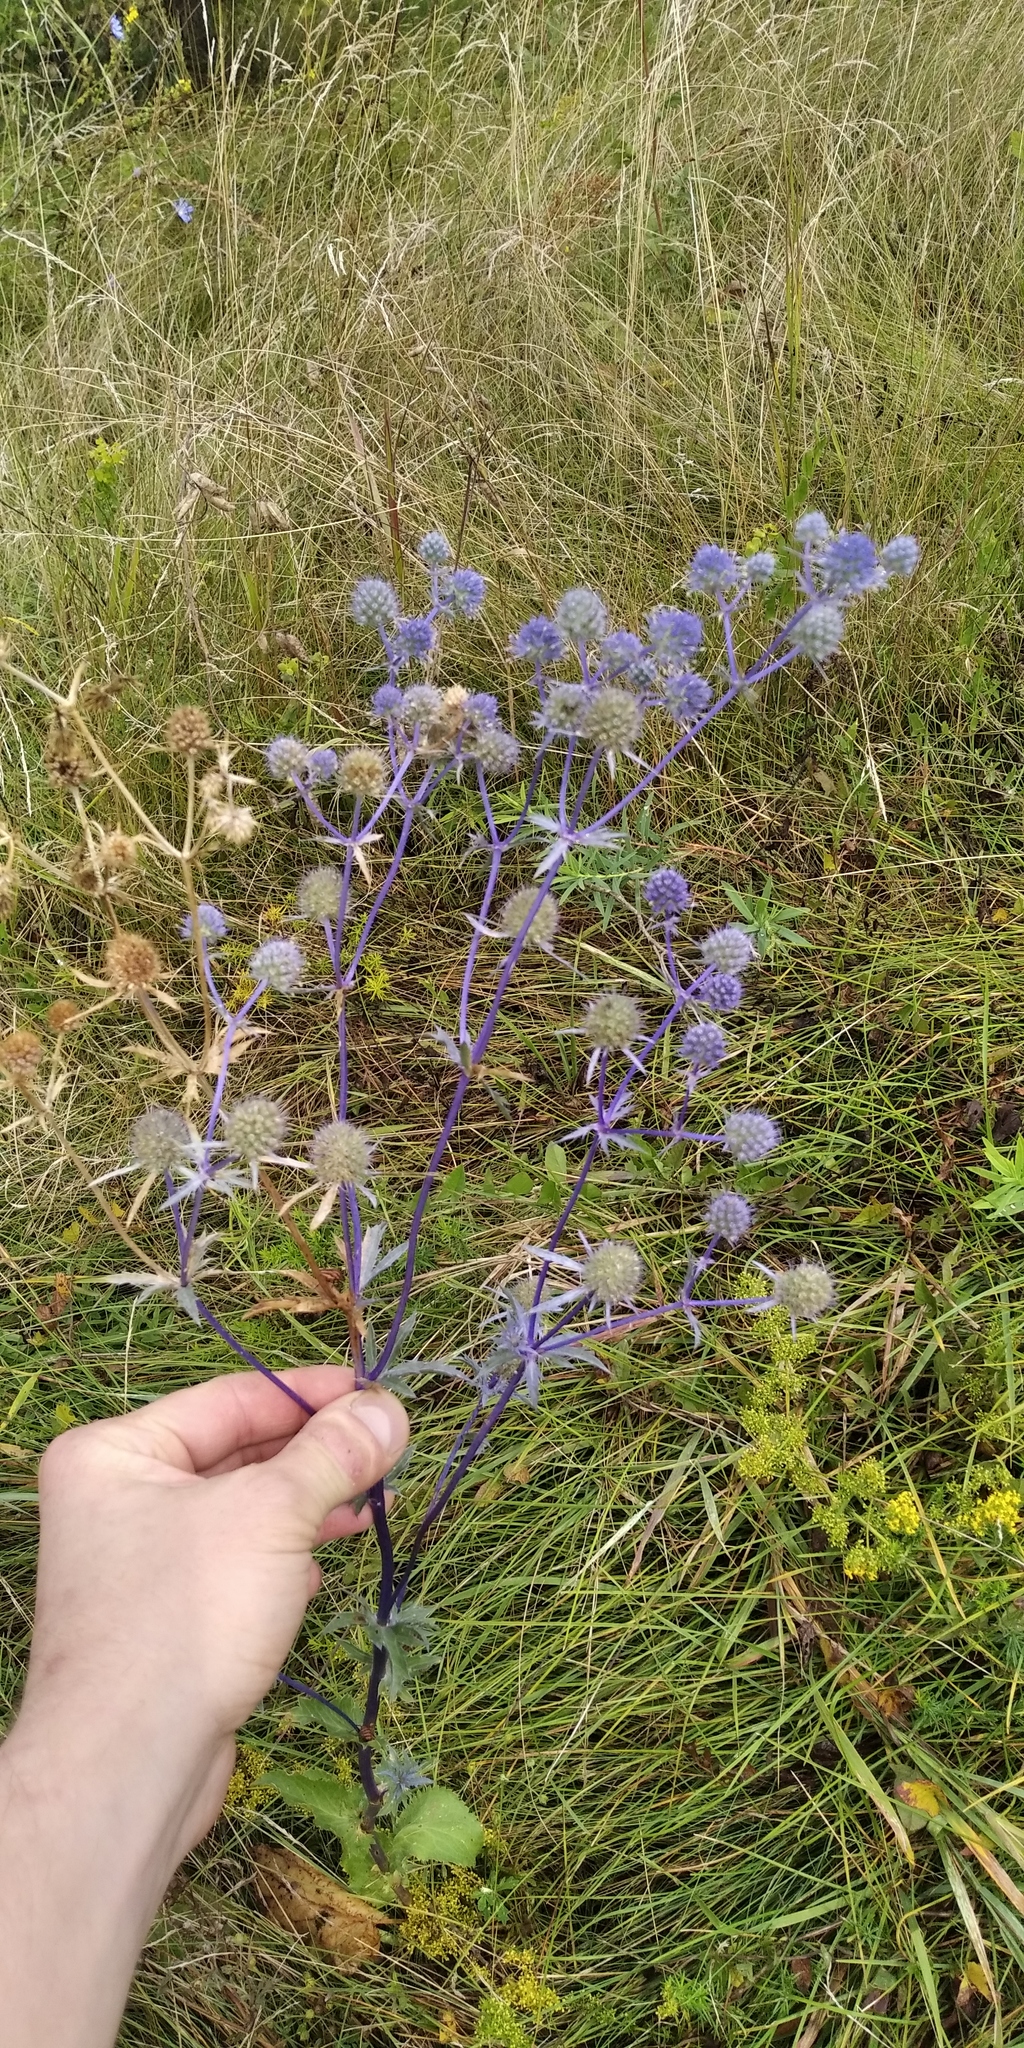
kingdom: Plantae
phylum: Tracheophyta
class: Magnoliopsida
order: Apiales
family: Apiaceae
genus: Eryngium
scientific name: Eryngium planum
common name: Blue eryngo
